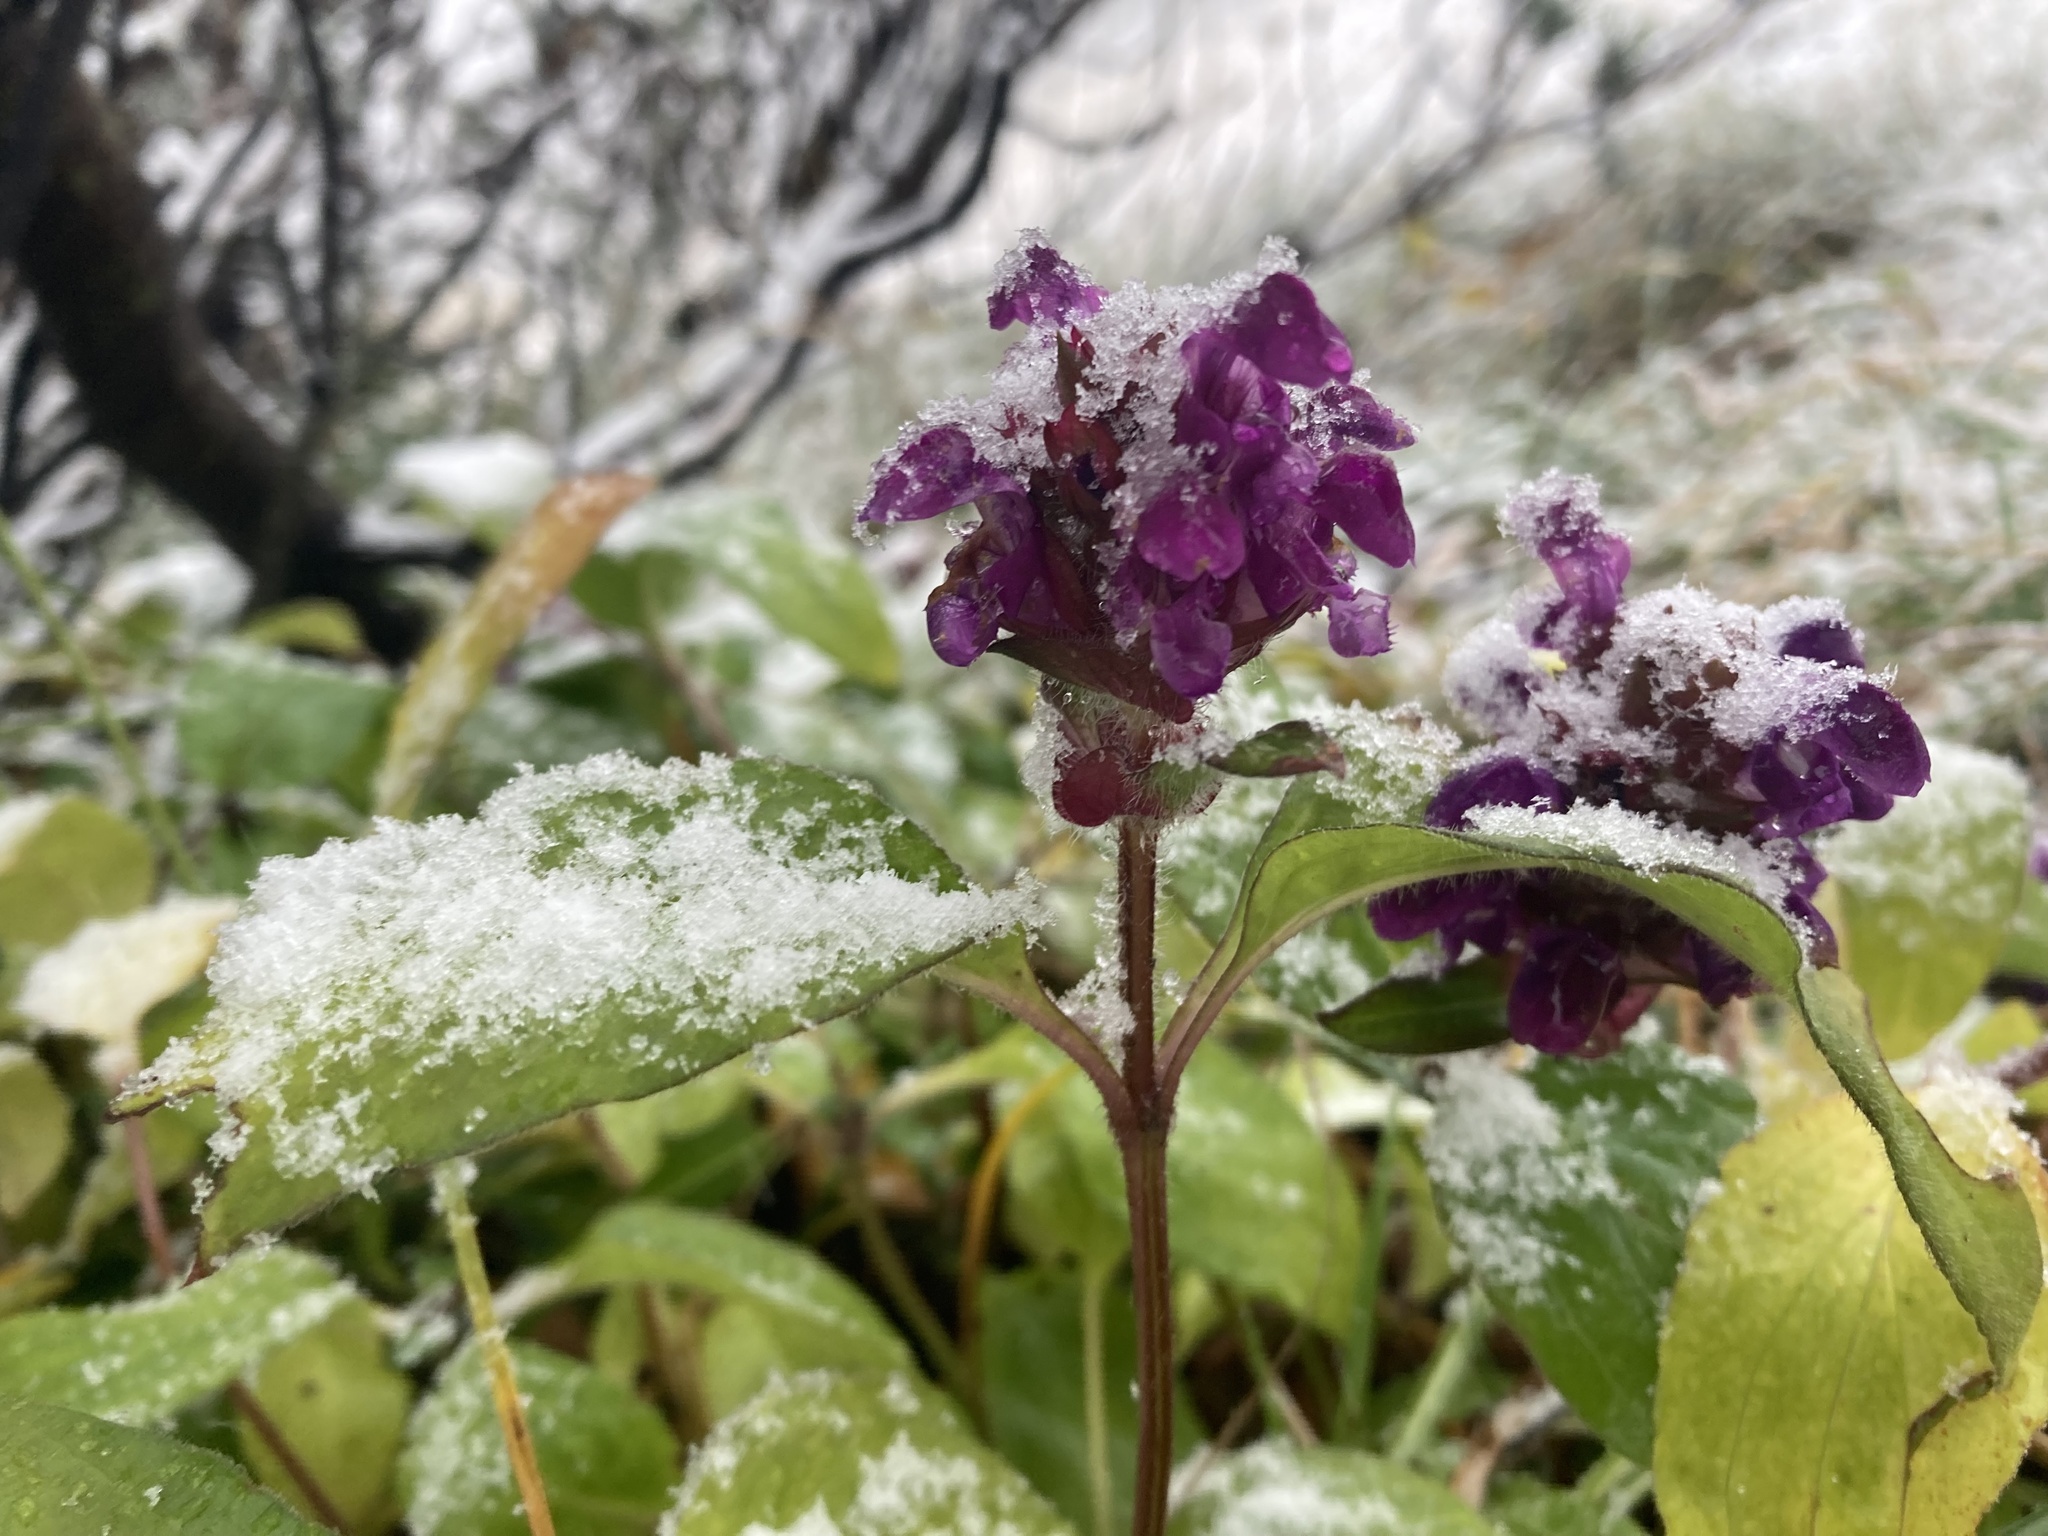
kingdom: Plantae
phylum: Tracheophyta
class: Magnoliopsida
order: Lamiales
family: Lamiaceae
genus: Prunella
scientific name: Prunella grandiflora
